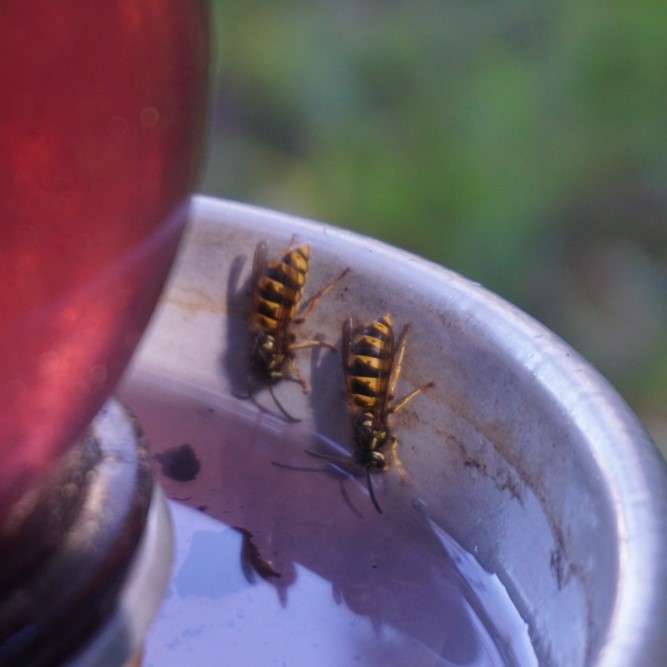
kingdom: Animalia
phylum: Arthropoda
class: Insecta
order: Hymenoptera
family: Vespidae
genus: Vespula
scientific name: Vespula vulgaris
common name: Common wasp
